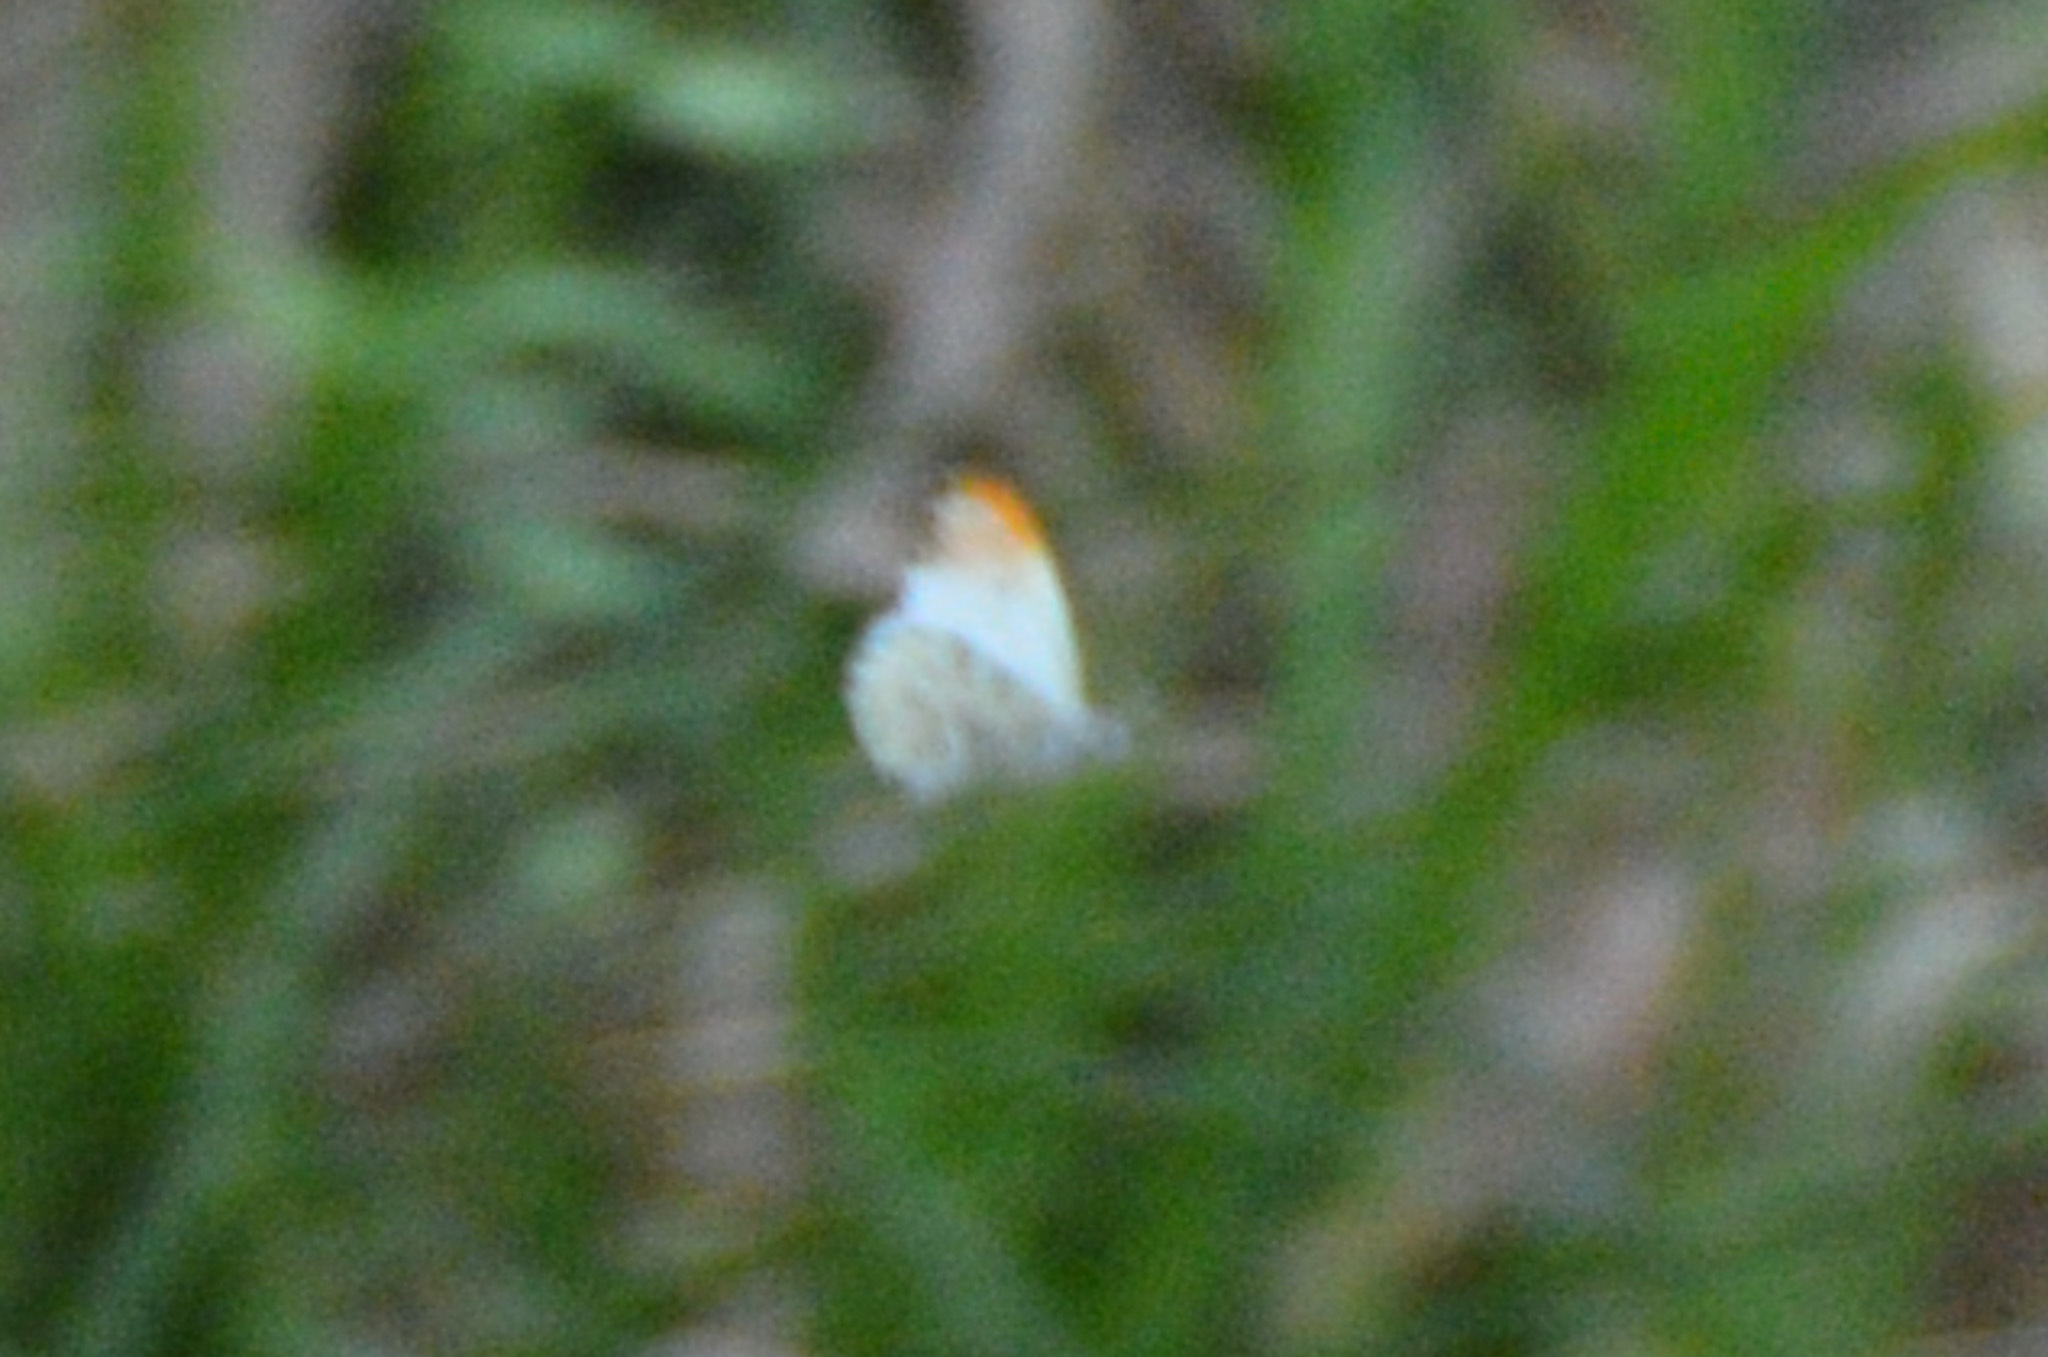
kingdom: Animalia
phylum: Arthropoda
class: Insecta
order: Lepidoptera
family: Pieridae
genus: Anthocharis
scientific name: Anthocharis midea
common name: Falcate orangetip
